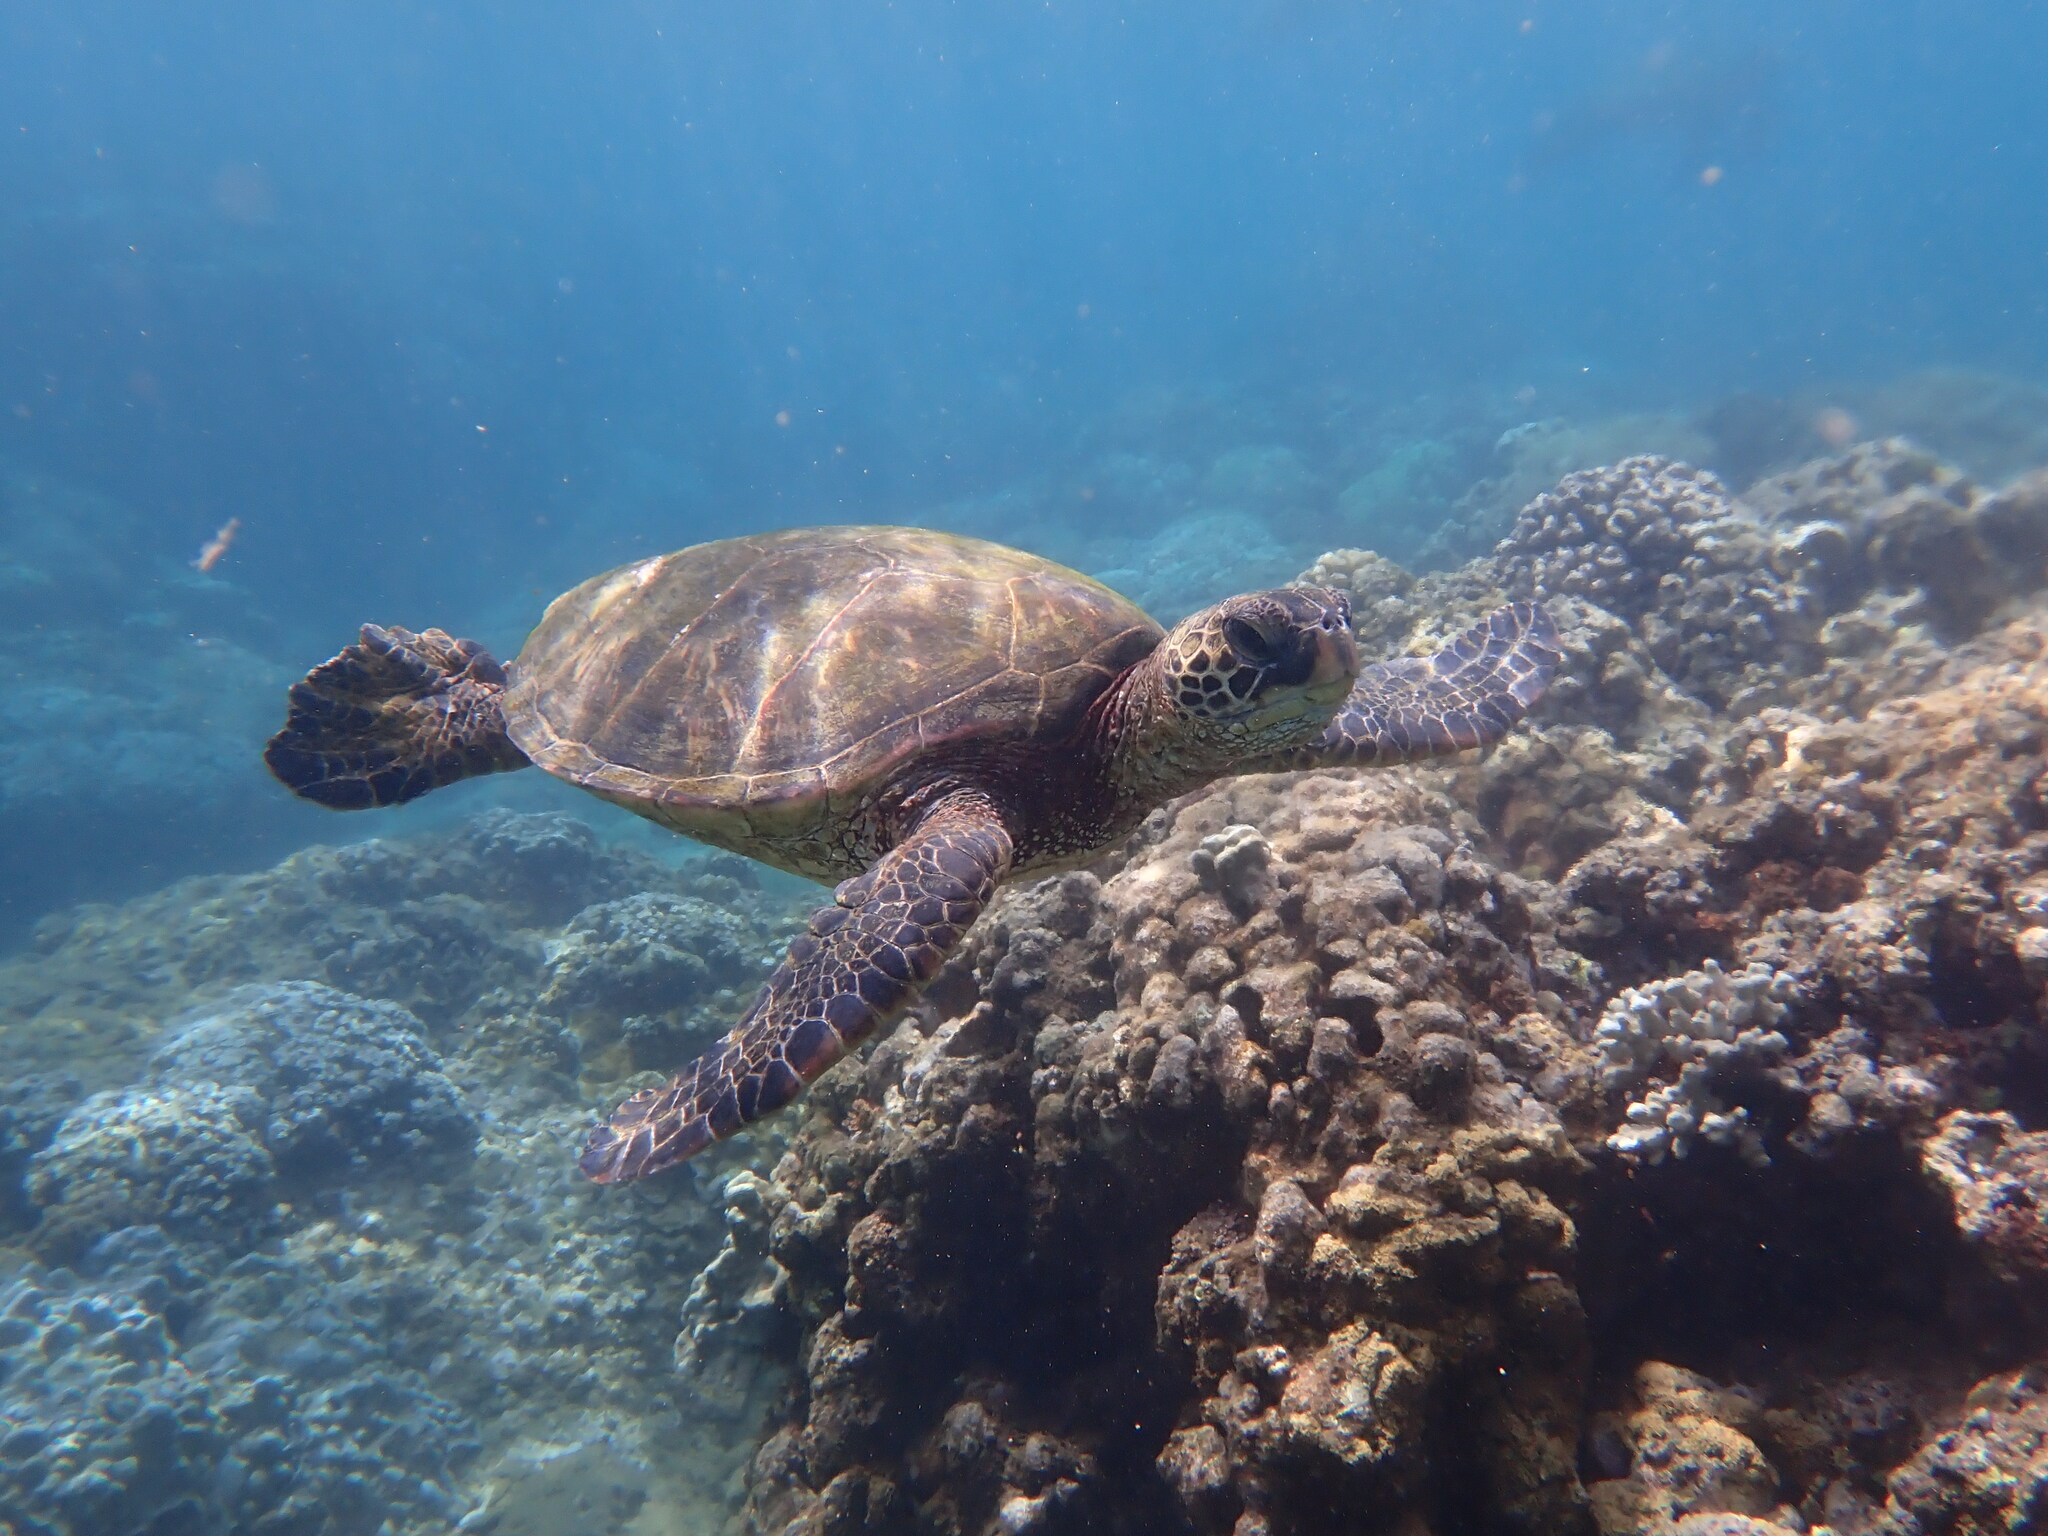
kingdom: Animalia
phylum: Chordata
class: Testudines
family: Cheloniidae
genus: Chelonia
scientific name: Chelonia mydas
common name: Green turtle
